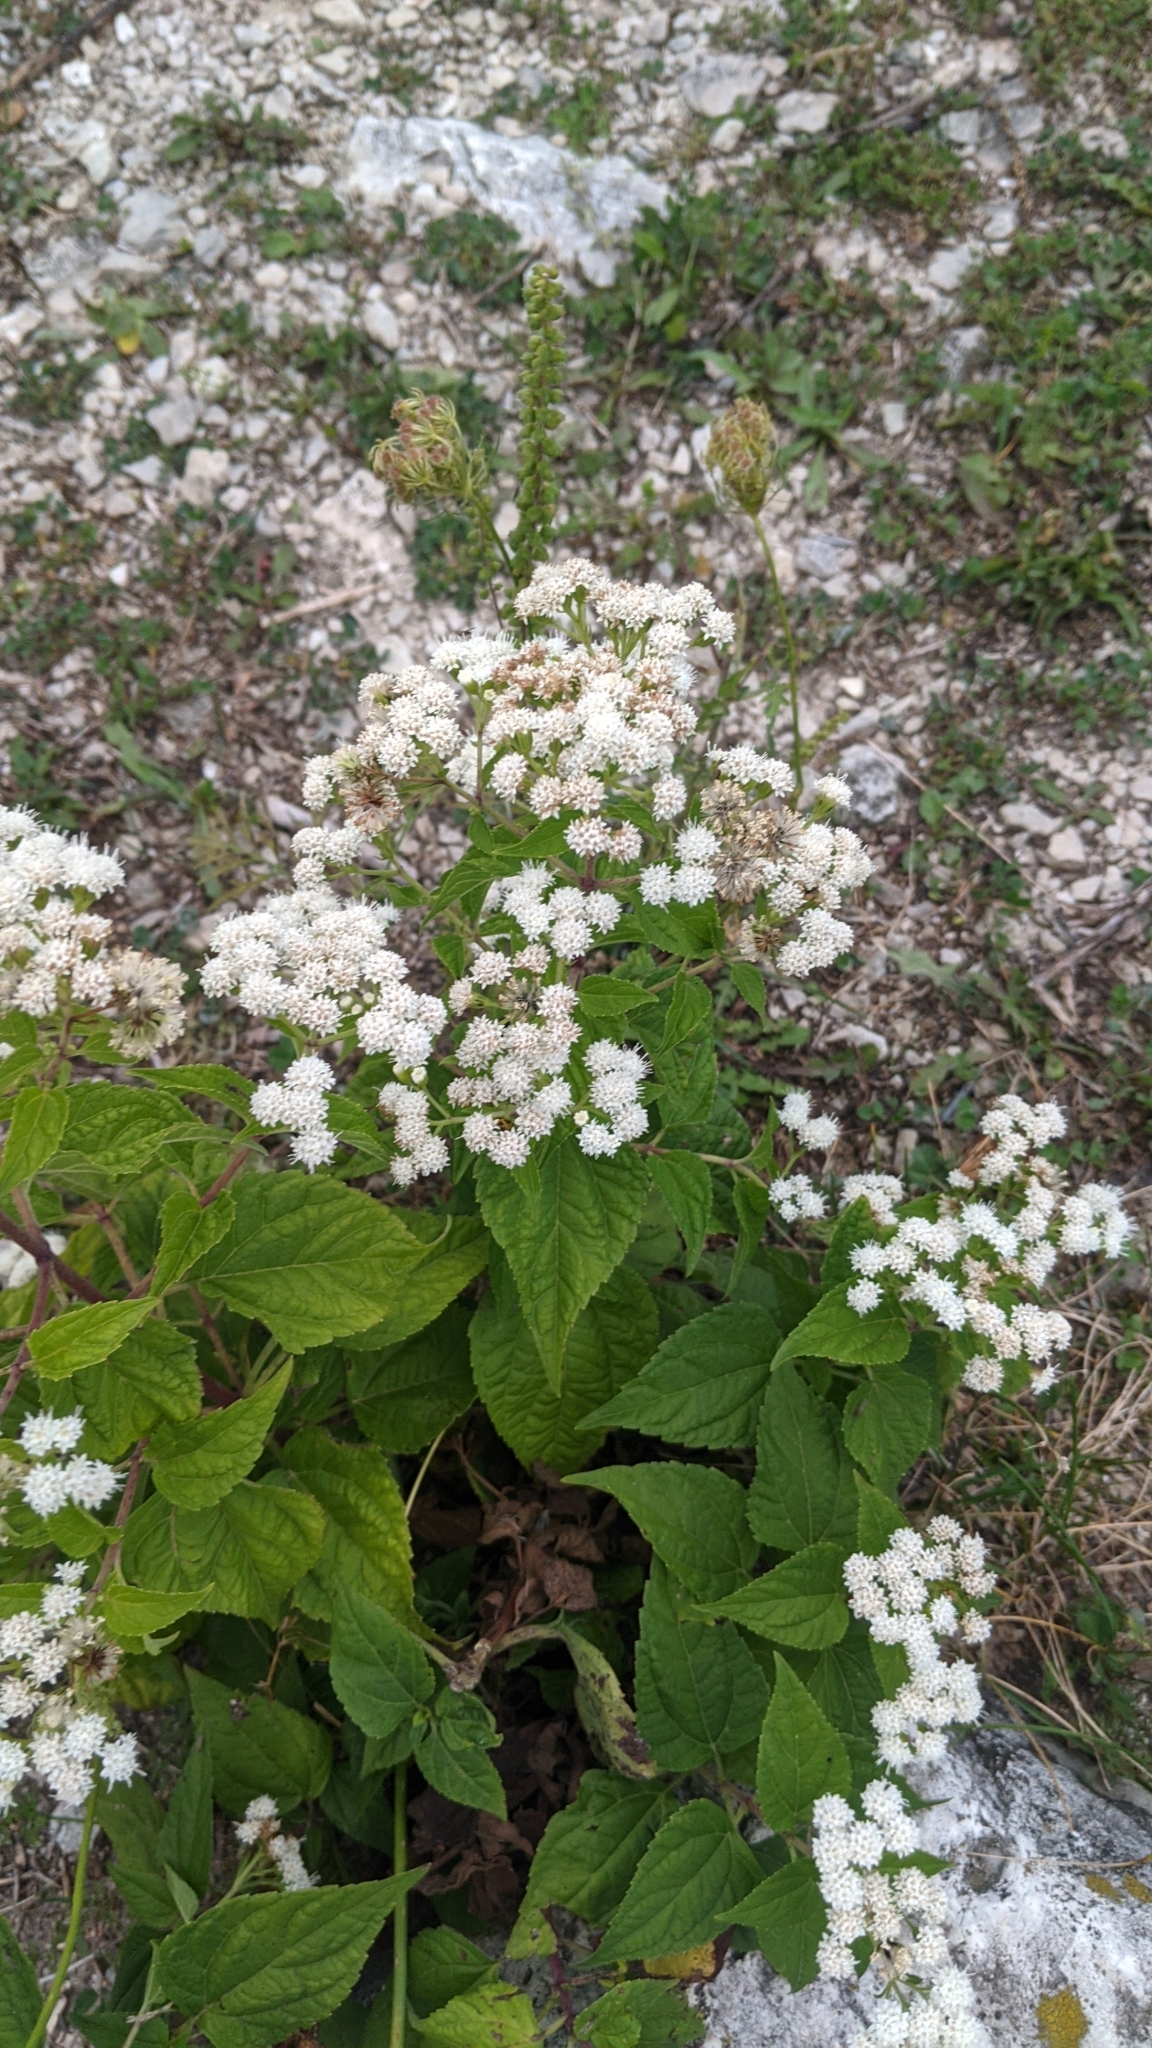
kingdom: Plantae
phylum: Tracheophyta
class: Magnoliopsida
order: Asterales
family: Asteraceae
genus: Ageratina
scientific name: Ageratina altissima
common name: White snakeroot
